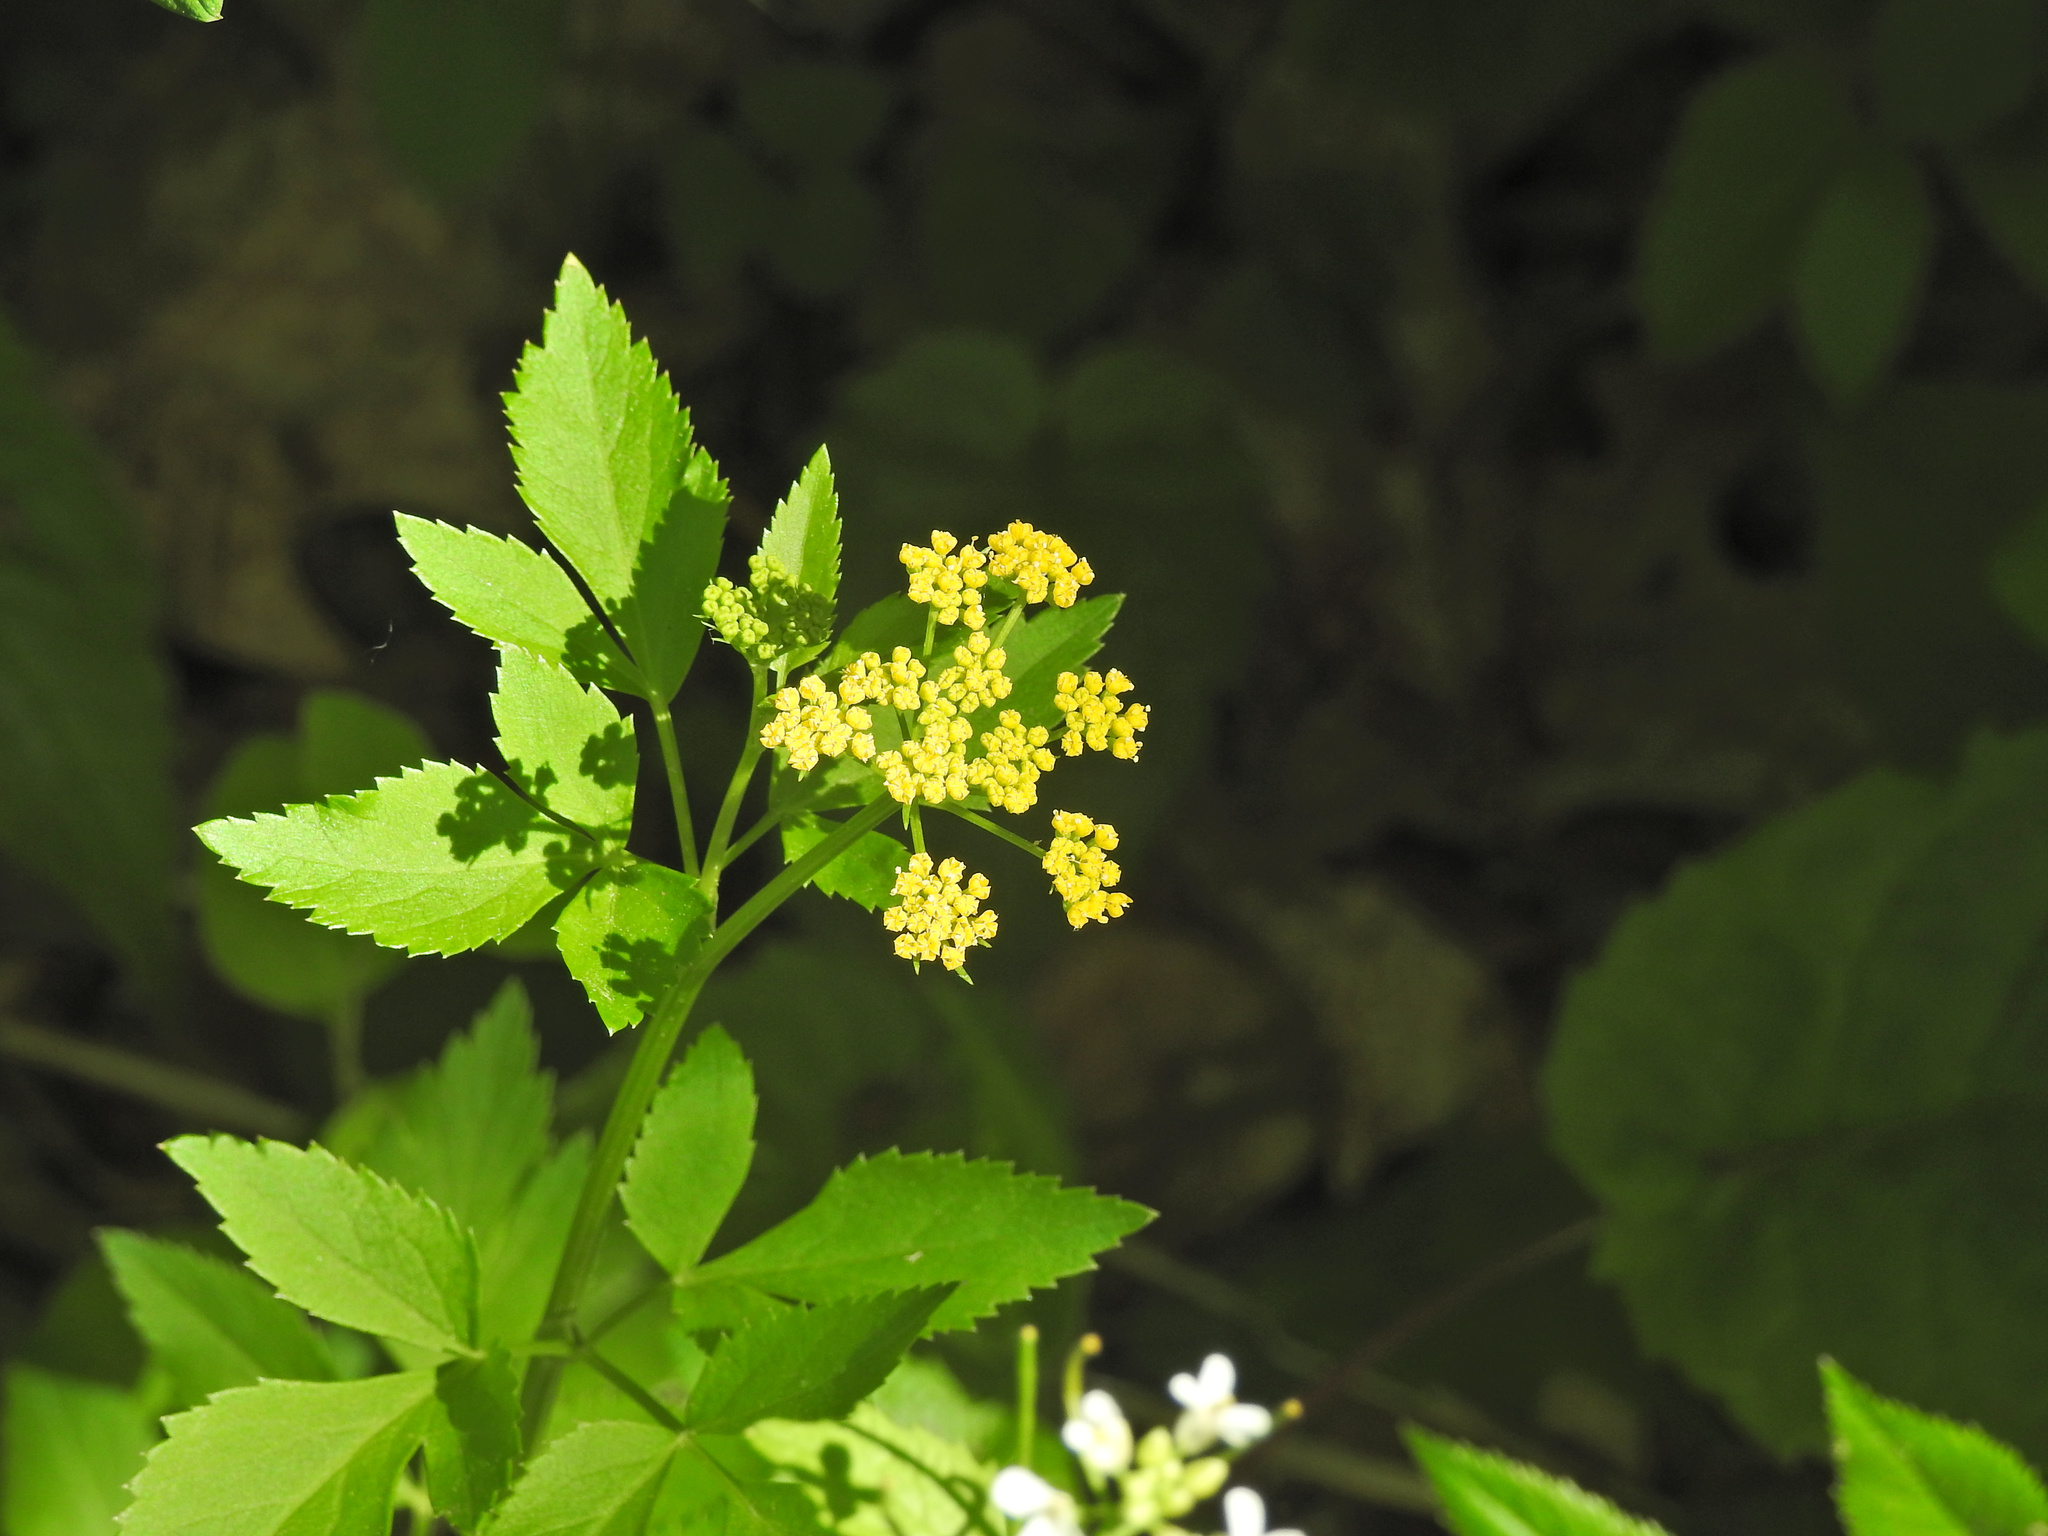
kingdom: Plantae
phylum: Tracheophyta
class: Magnoliopsida
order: Apiales
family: Apiaceae
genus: Zizia
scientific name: Zizia aurea
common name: Golden alexanders
